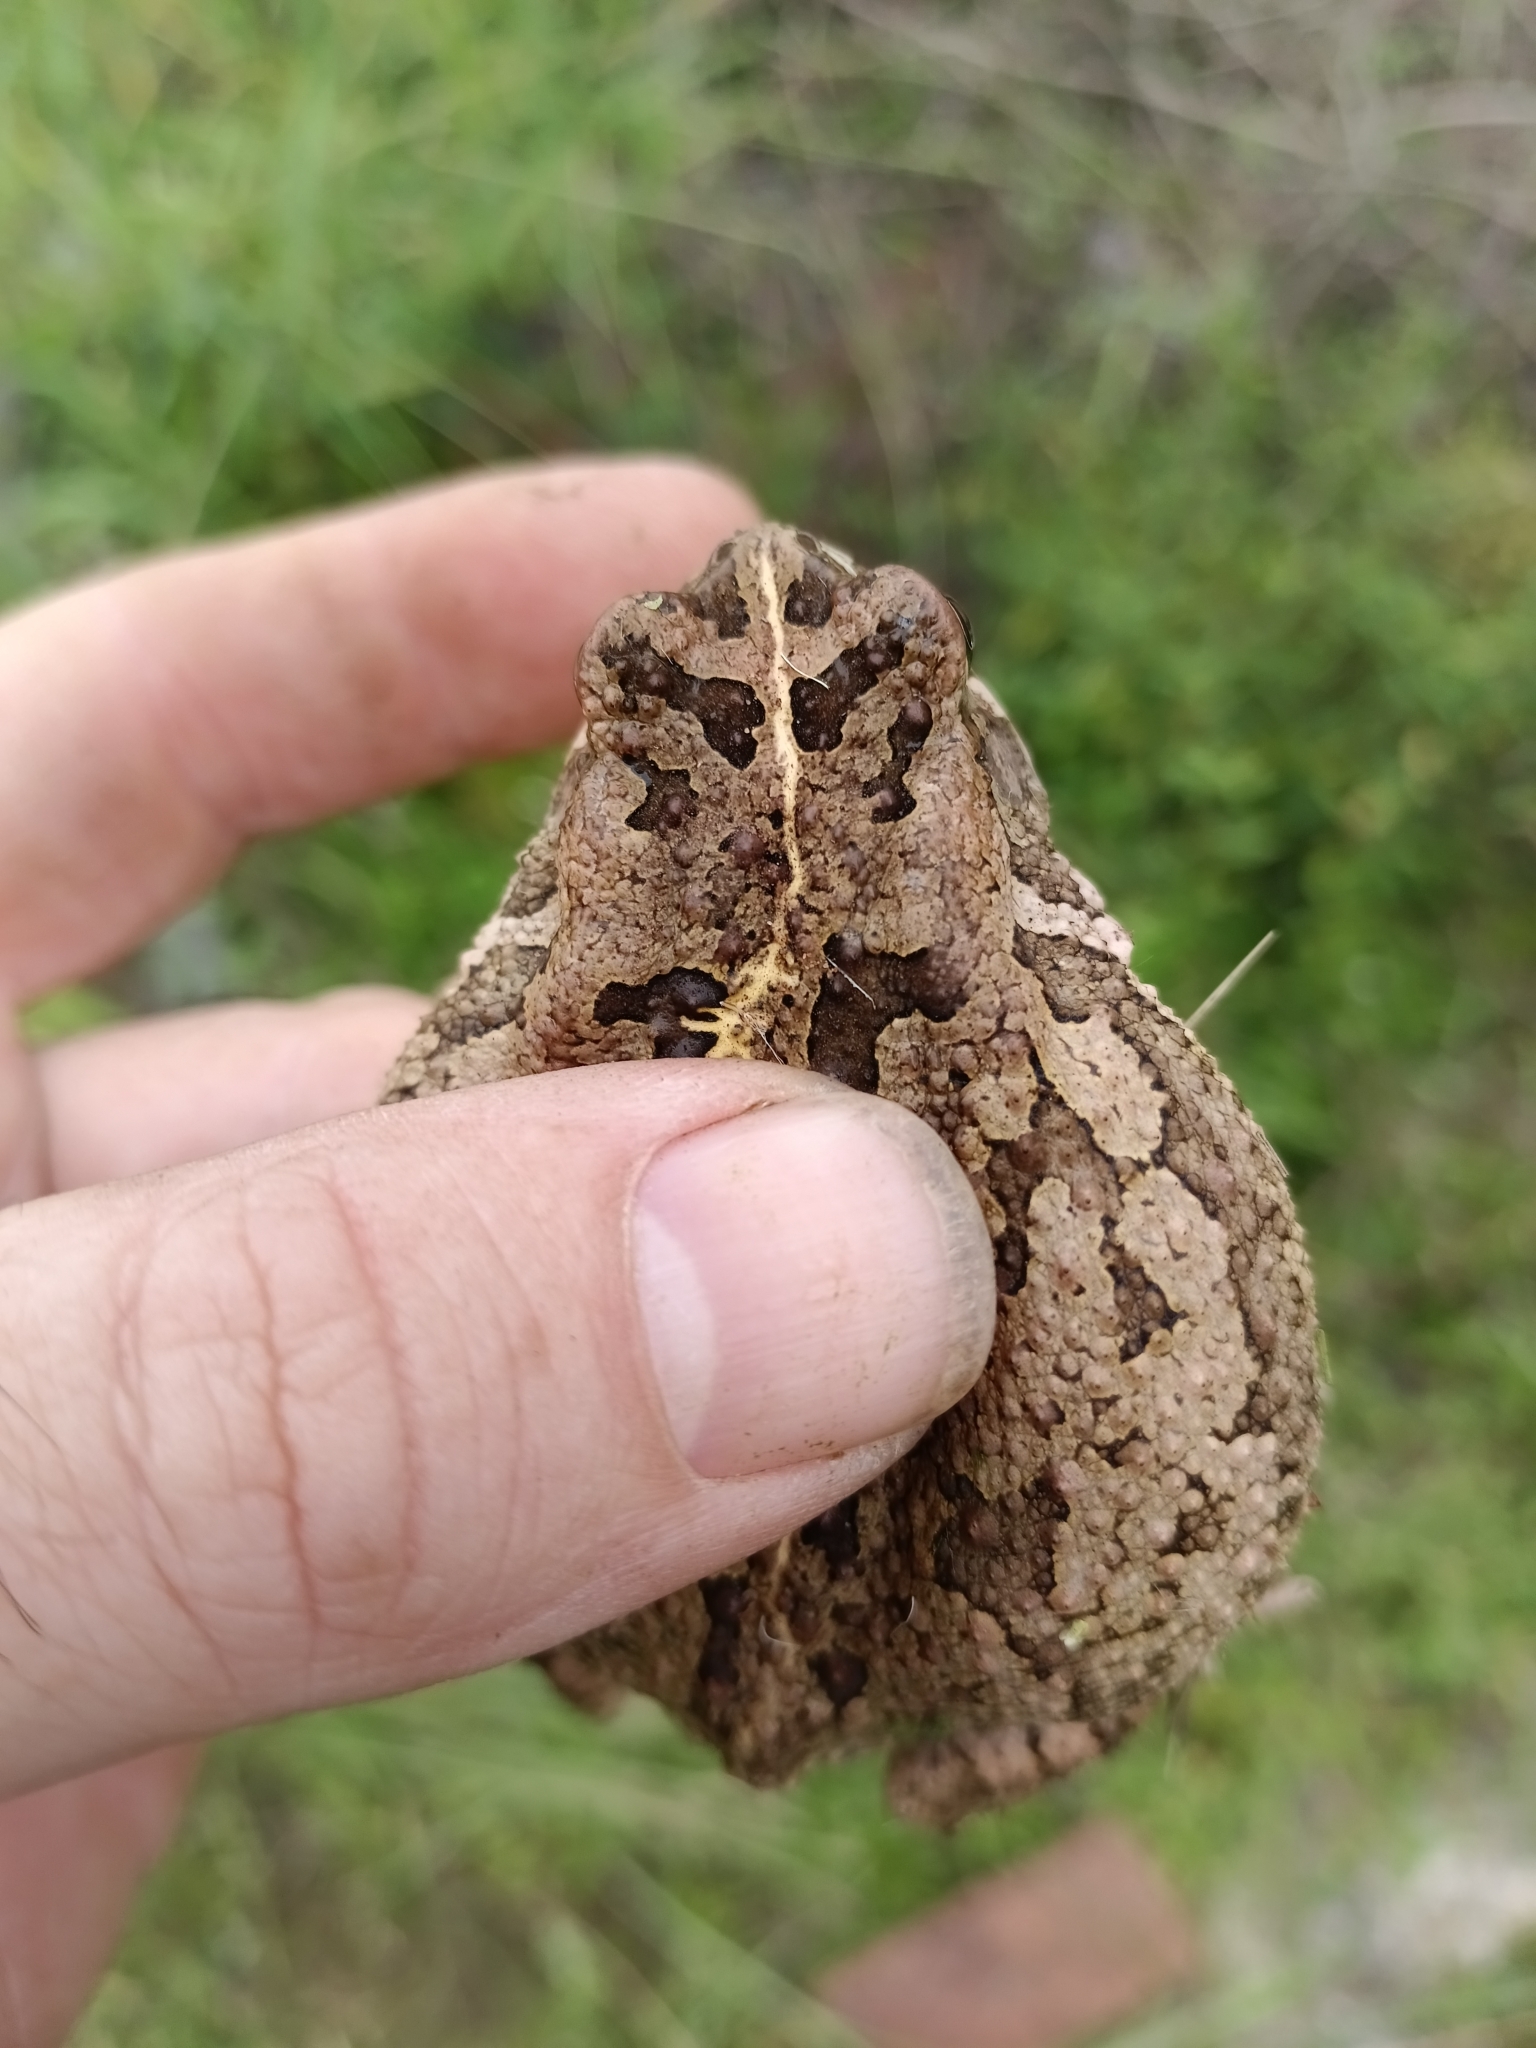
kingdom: Animalia
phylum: Chordata
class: Amphibia
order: Anura
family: Bufonidae
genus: Sclerophrys
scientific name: Sclerophrys gutturalis
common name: African common toad
